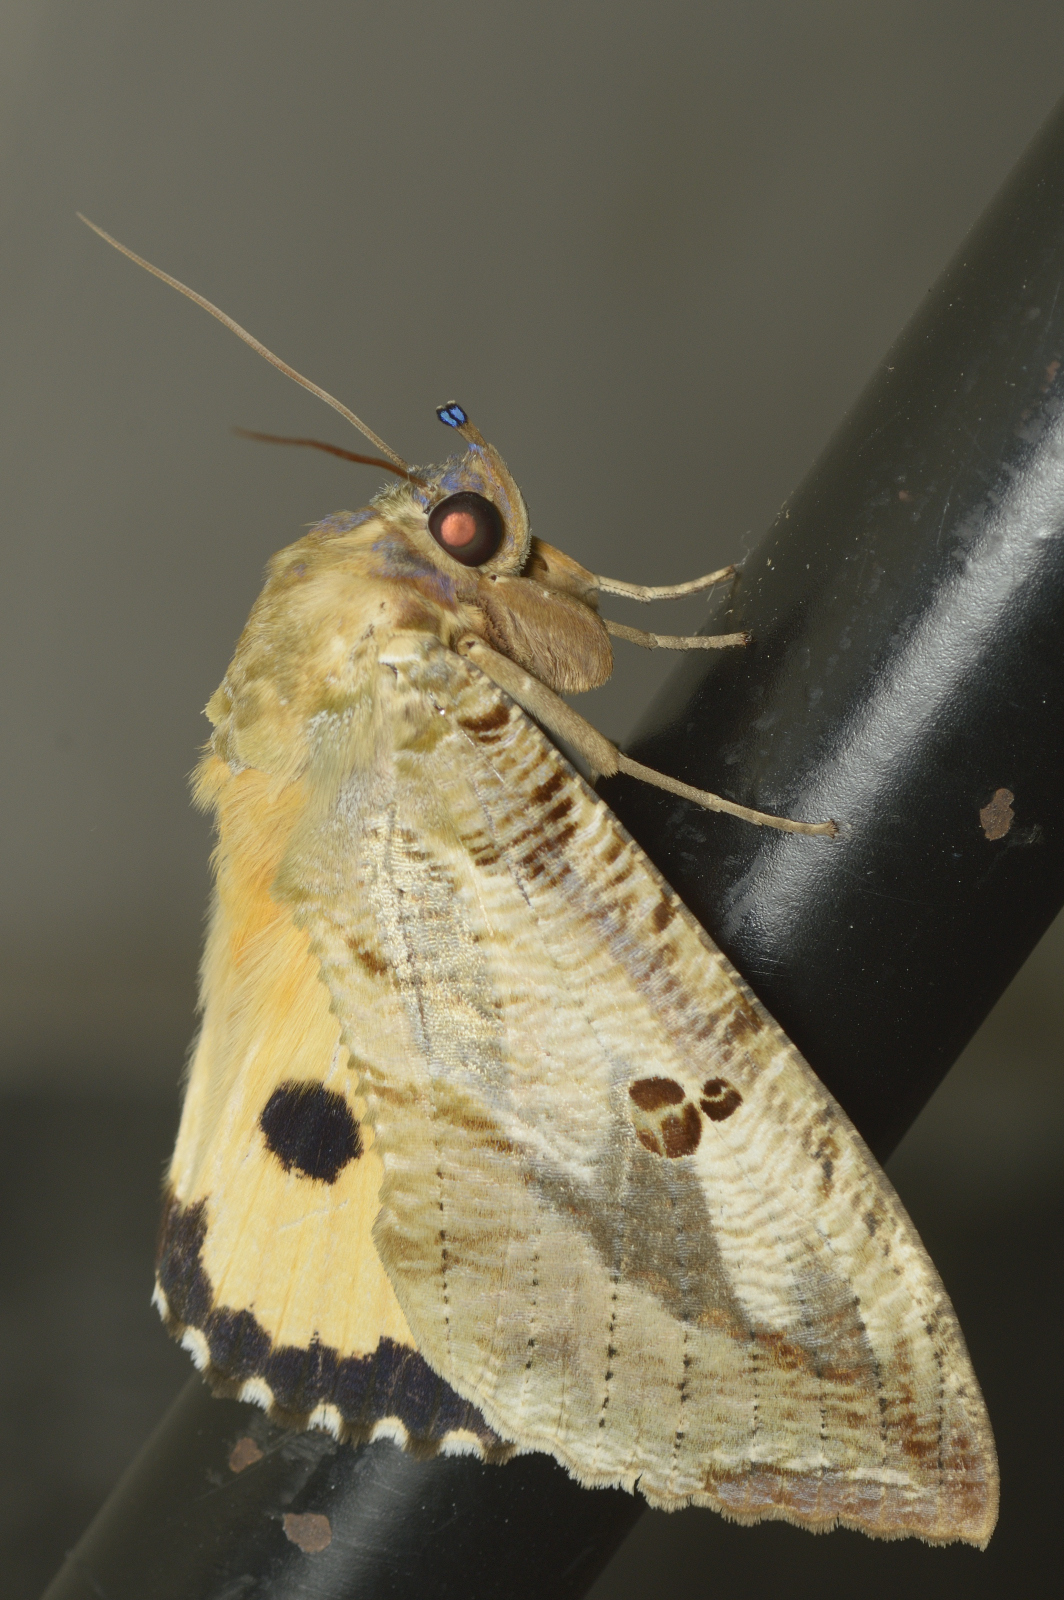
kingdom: Animalia
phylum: Arthropoda
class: Insecta
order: Lepidoptera
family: Erebidae
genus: Eudocima
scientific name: Eudocima materna
